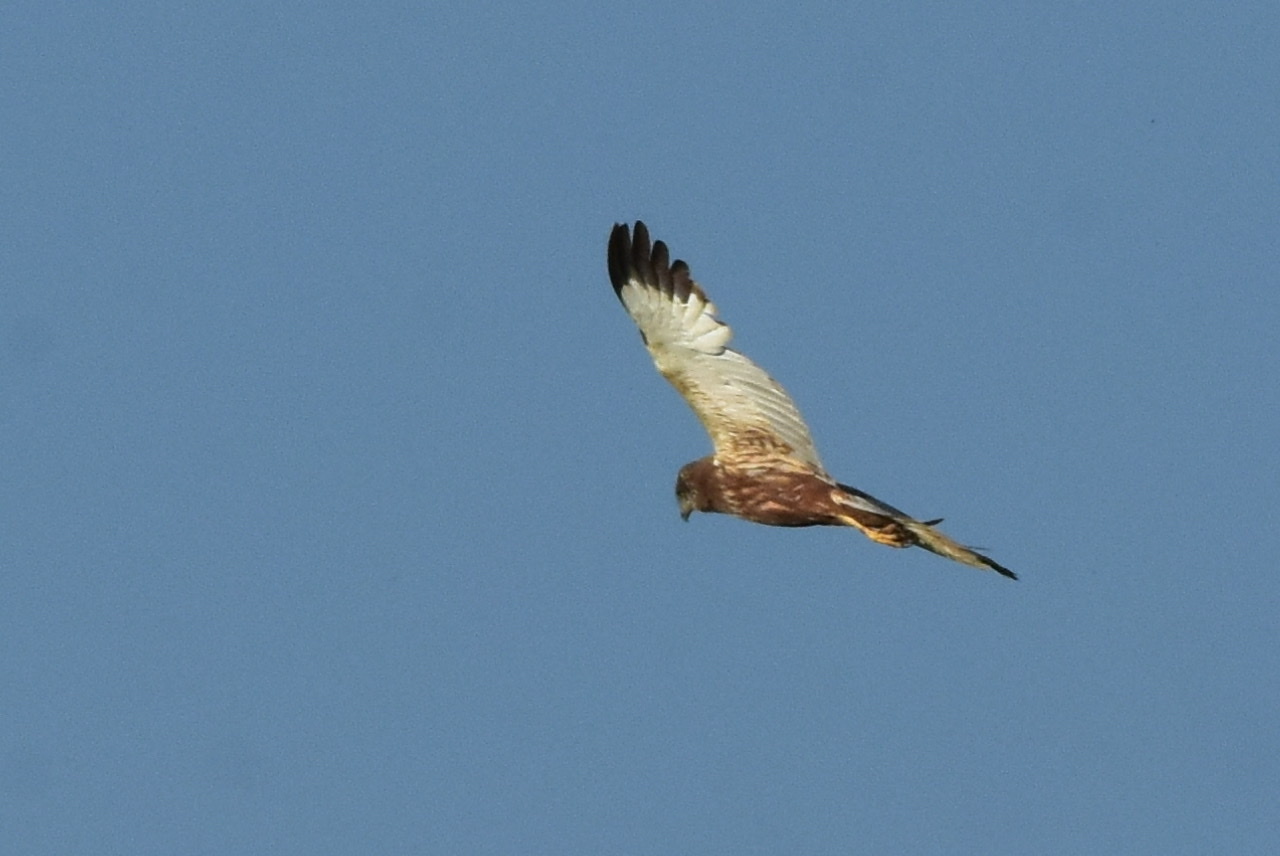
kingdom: Animalia
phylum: Chordata
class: Aves
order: Accipitriformes
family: Accipitridae
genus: Circus
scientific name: Circus aeruginosus
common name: Western marsh harrier
